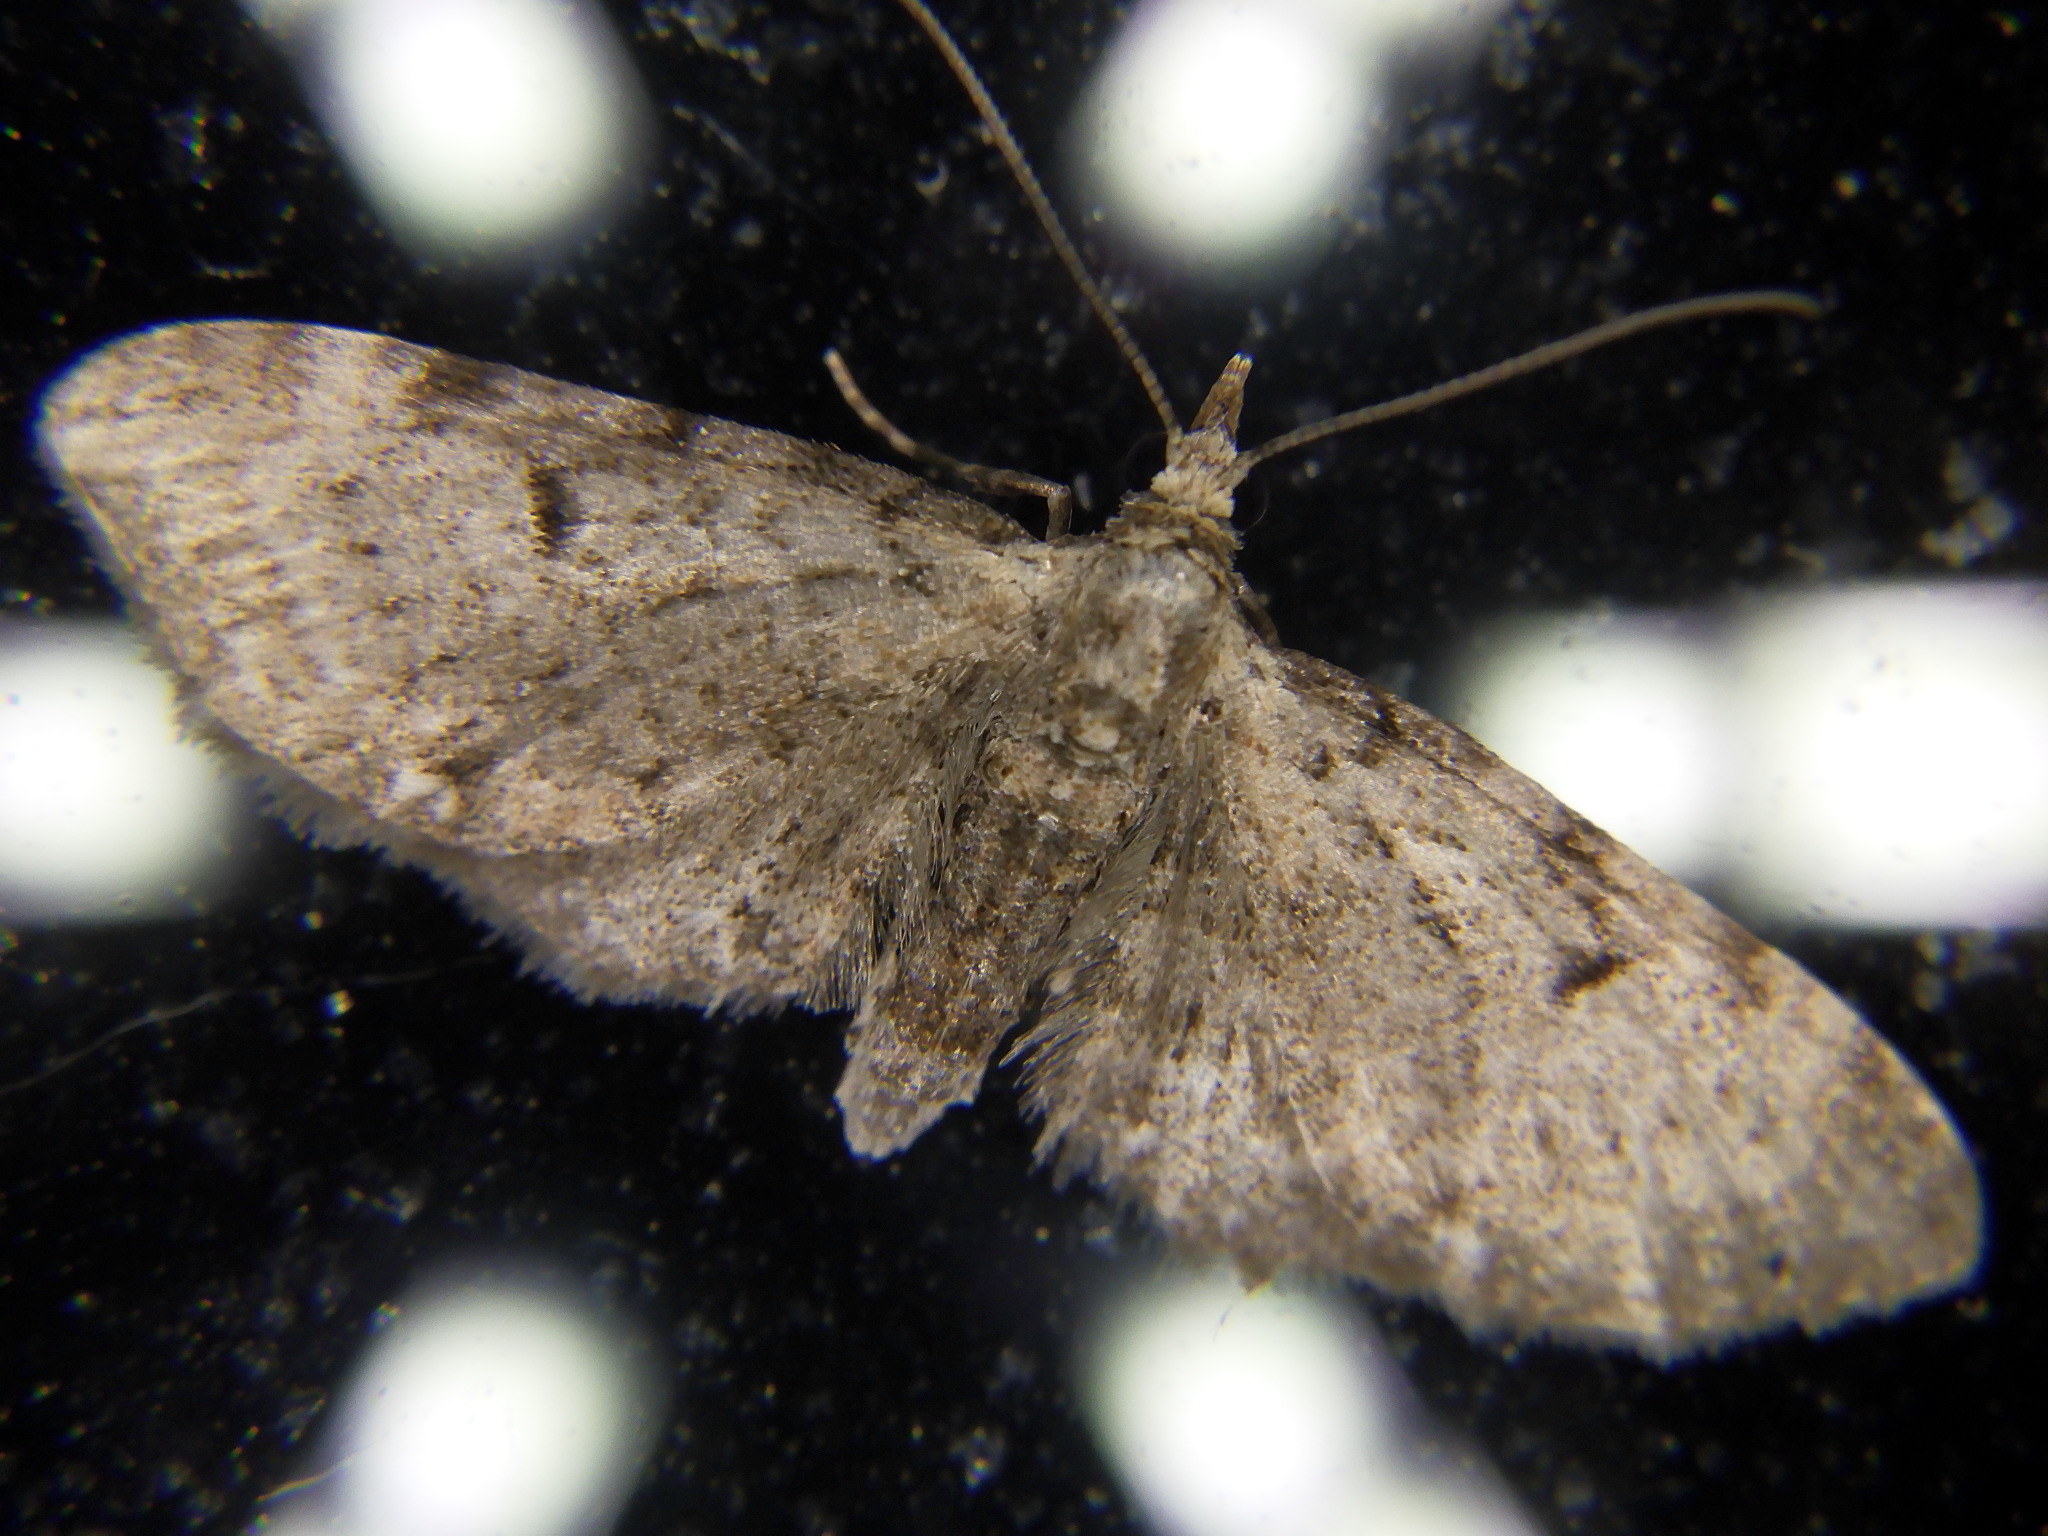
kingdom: Animalia
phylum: Arthropoda
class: Insecta
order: Lepidoptera
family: Geometridae
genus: Eupithecia
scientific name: Eupithecia
